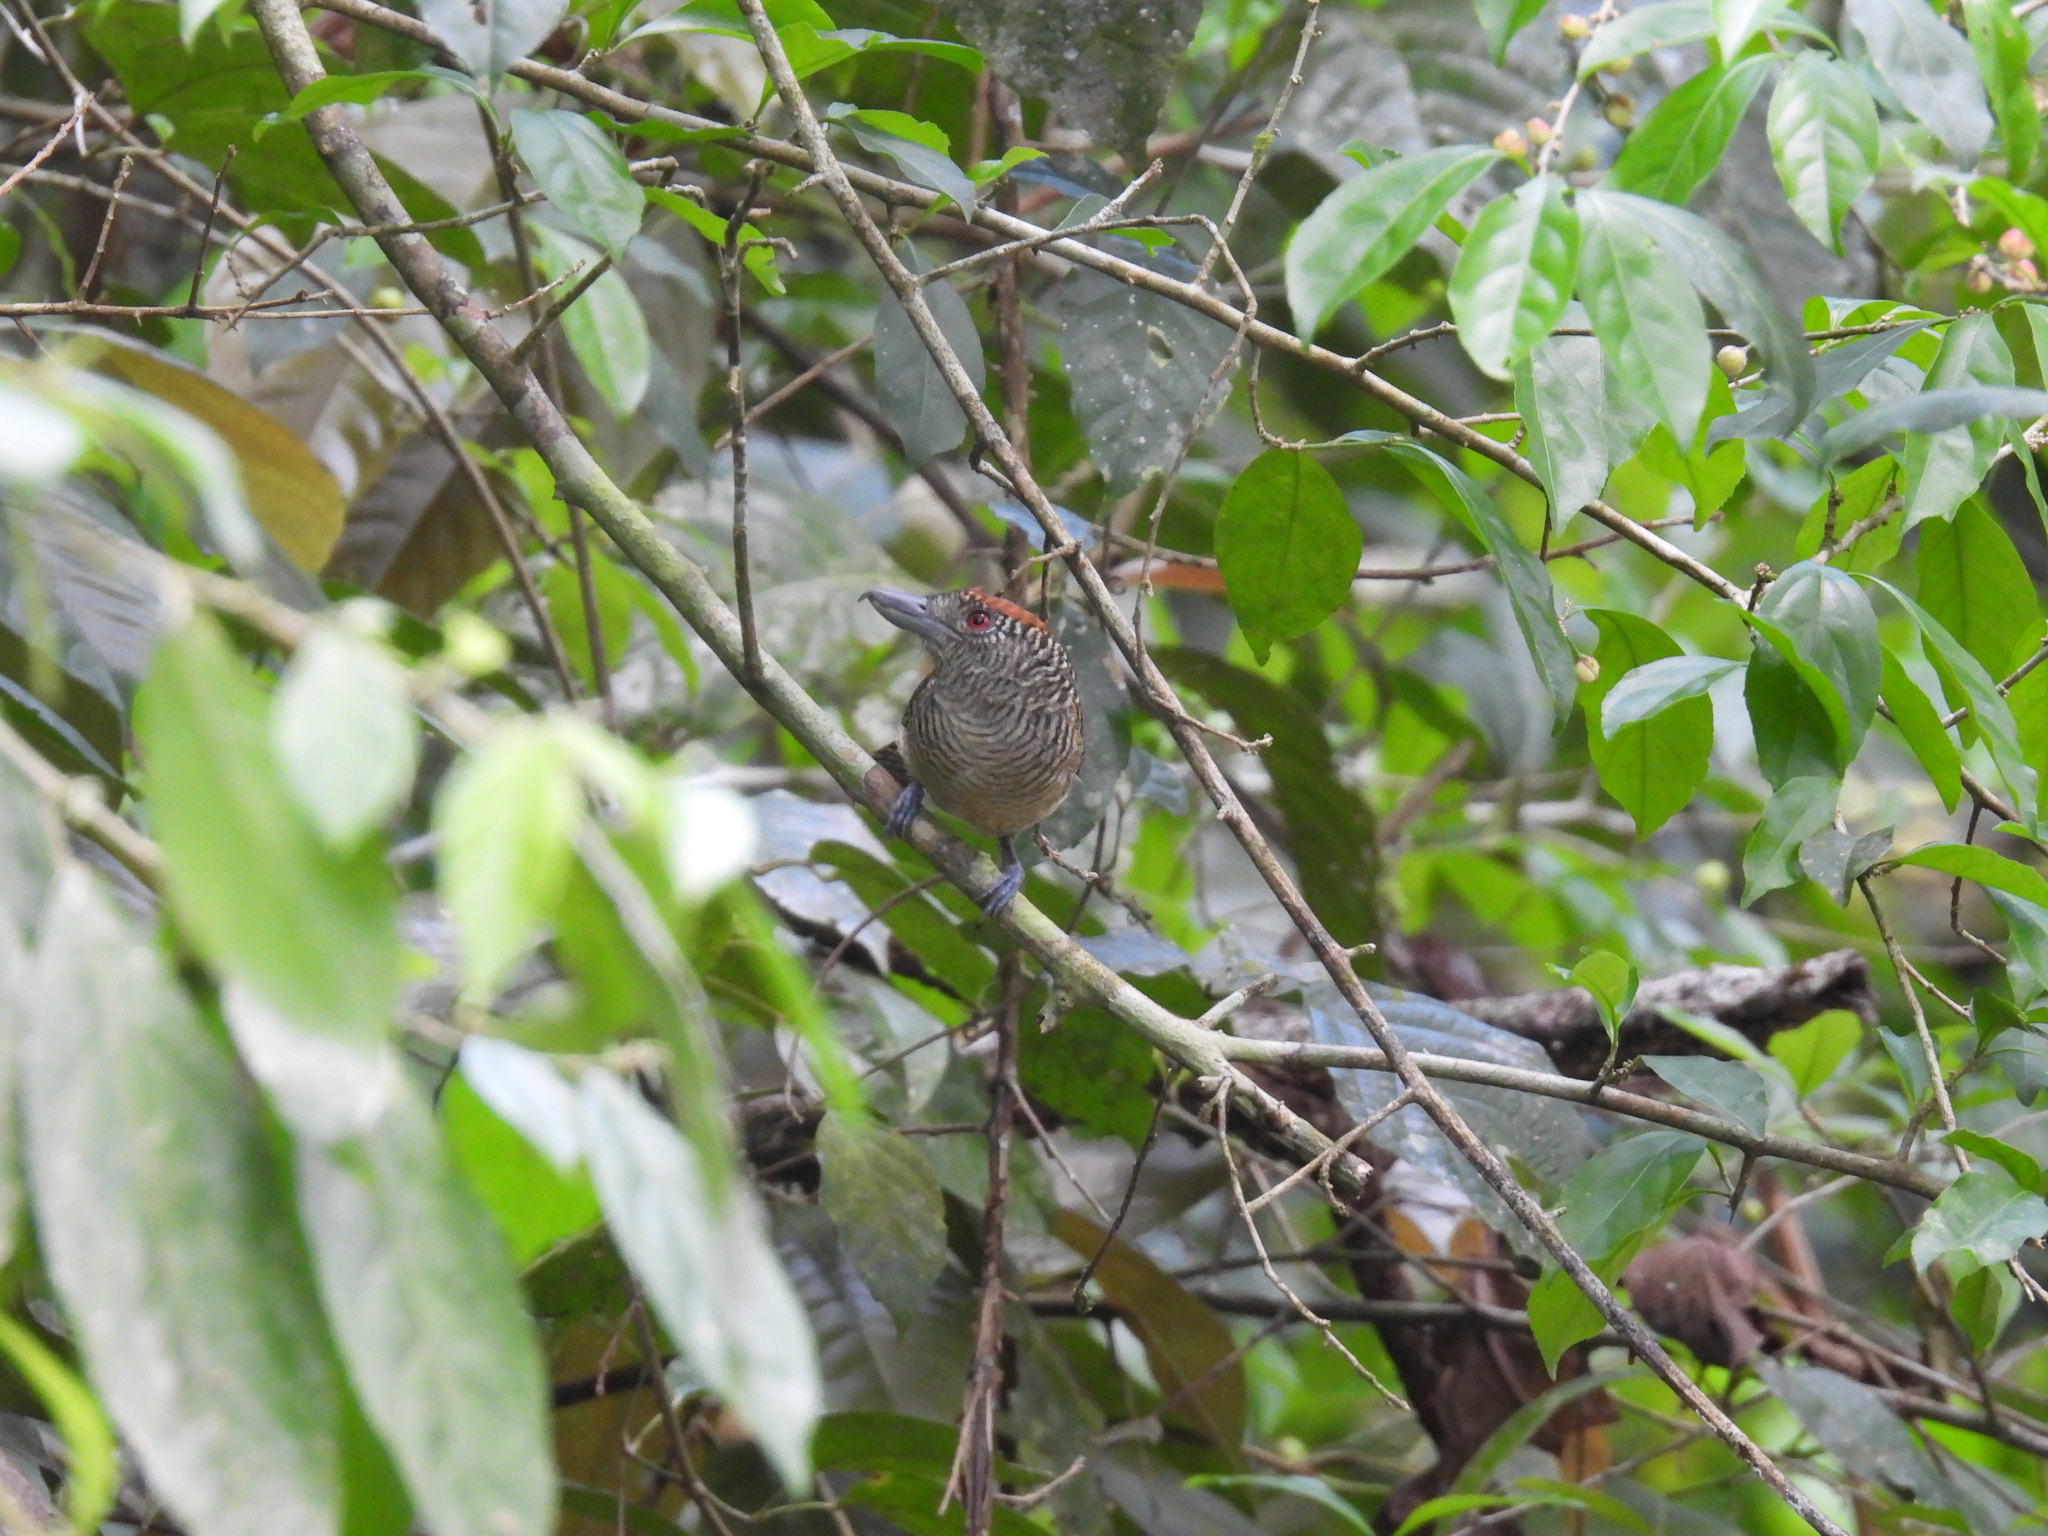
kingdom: Animalia
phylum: Chordata
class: Aves
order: Passeriformes
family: Thamnophilidae
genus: Cymbilaimus
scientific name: Cymbilaimus lineatus
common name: Fasciated antshrike
